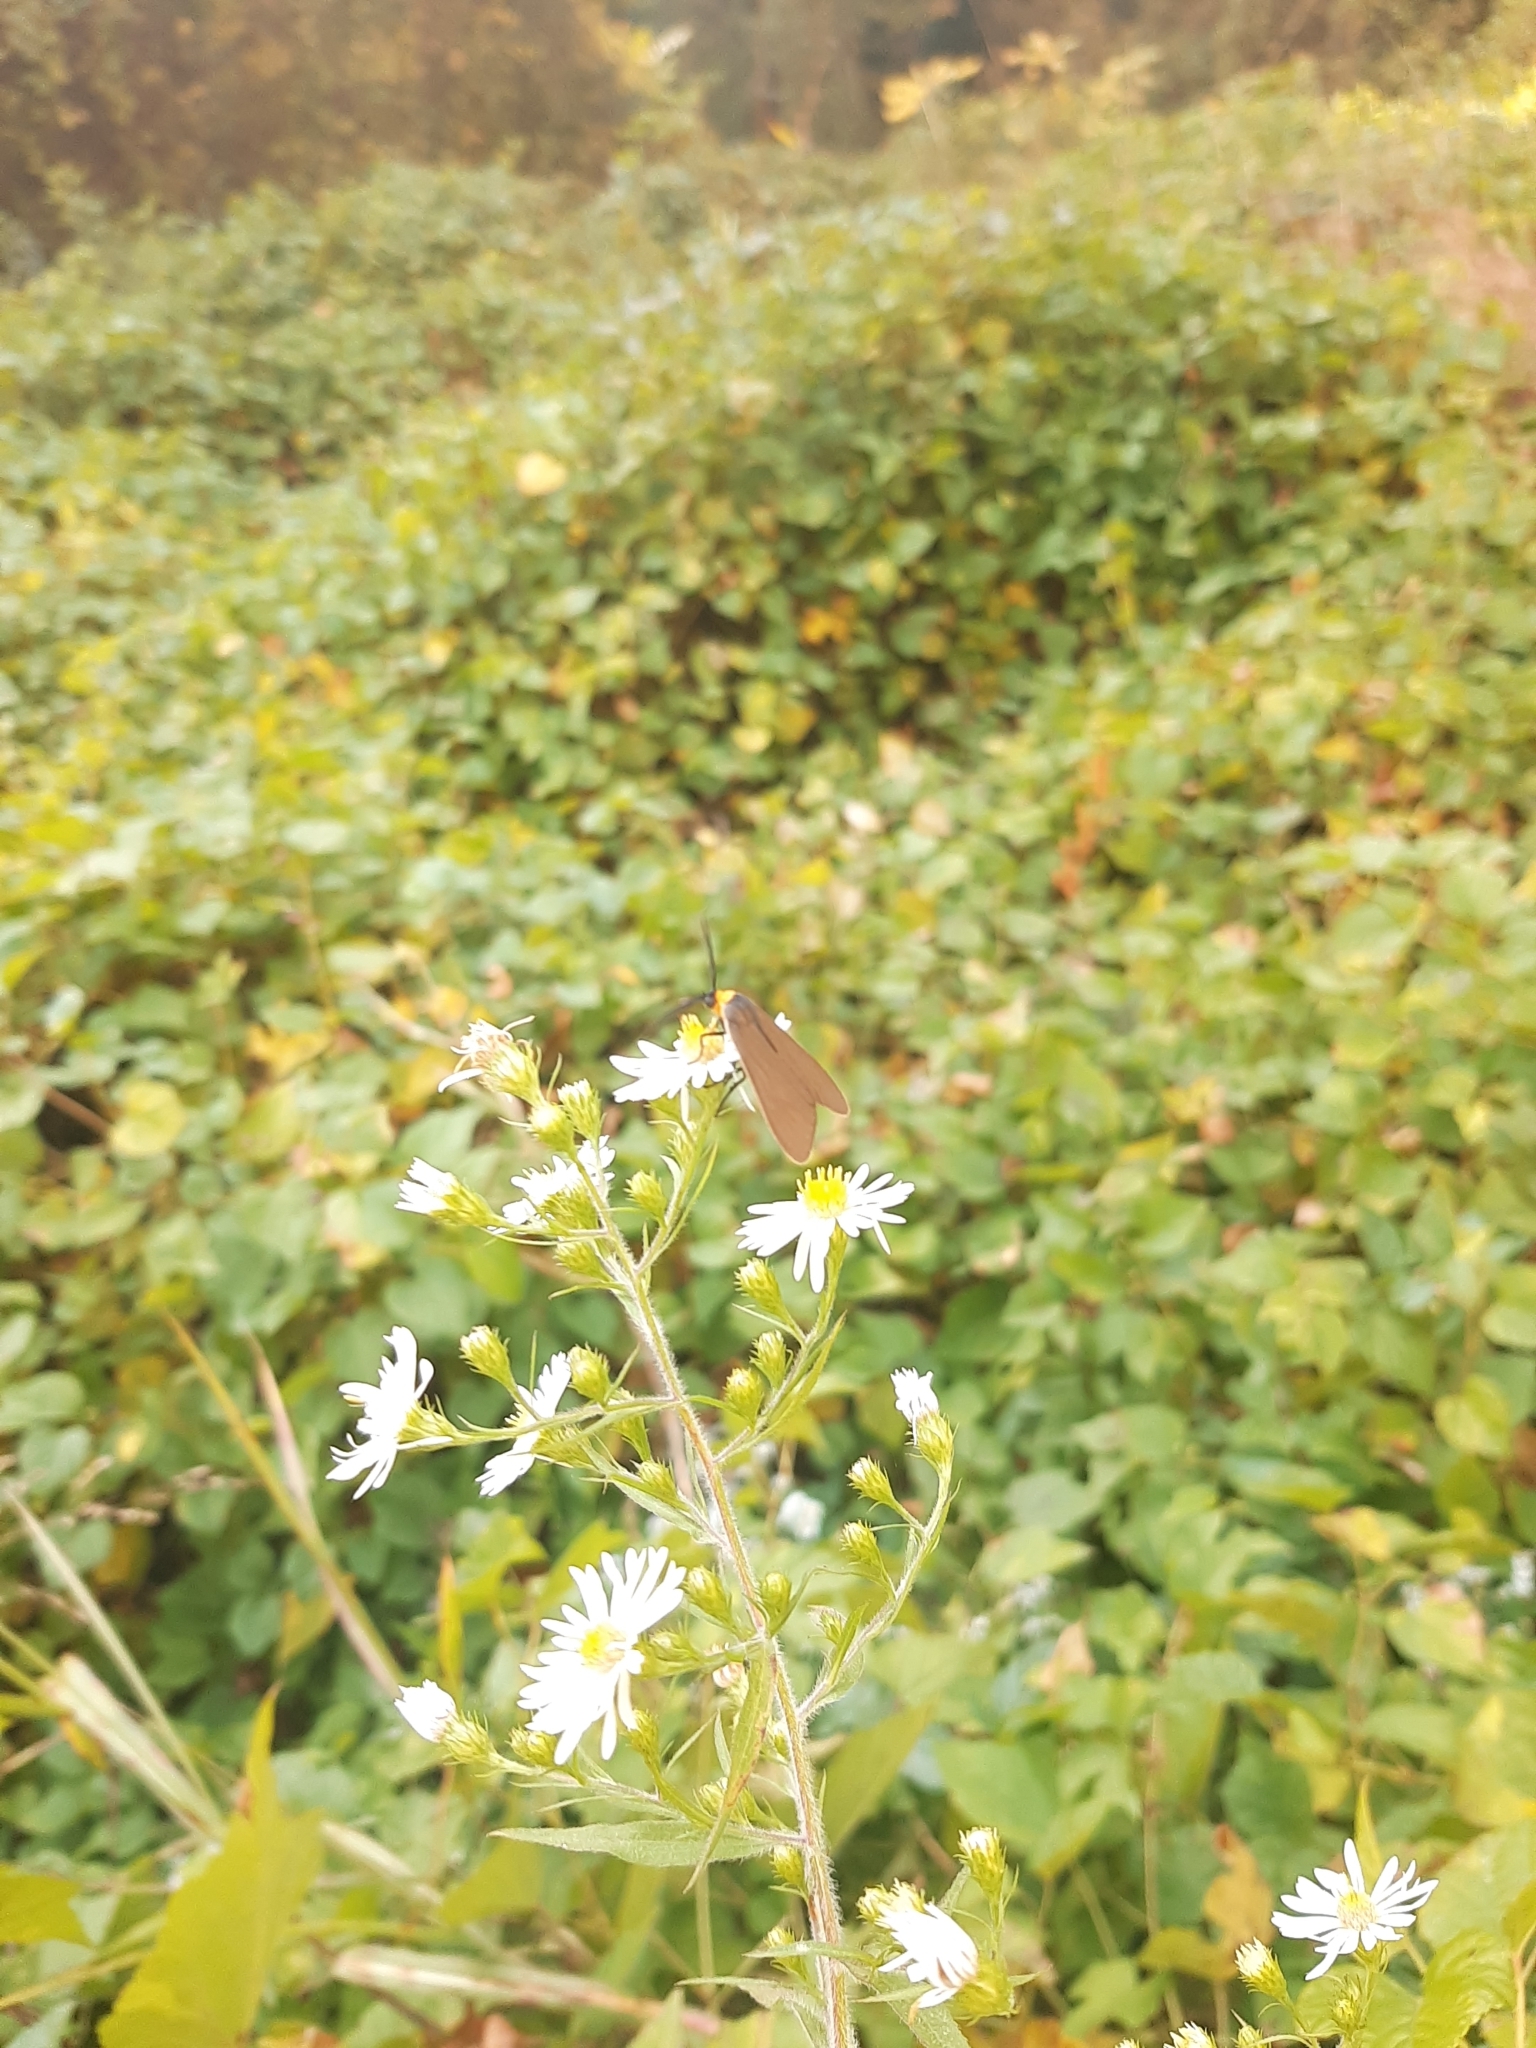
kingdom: Animalia
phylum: Arthropoda
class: Insecta
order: Lepidoptera
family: Erebidae
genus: Cisseps
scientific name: Cisseps fulvicollis
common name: Yellow-collared scape moth
